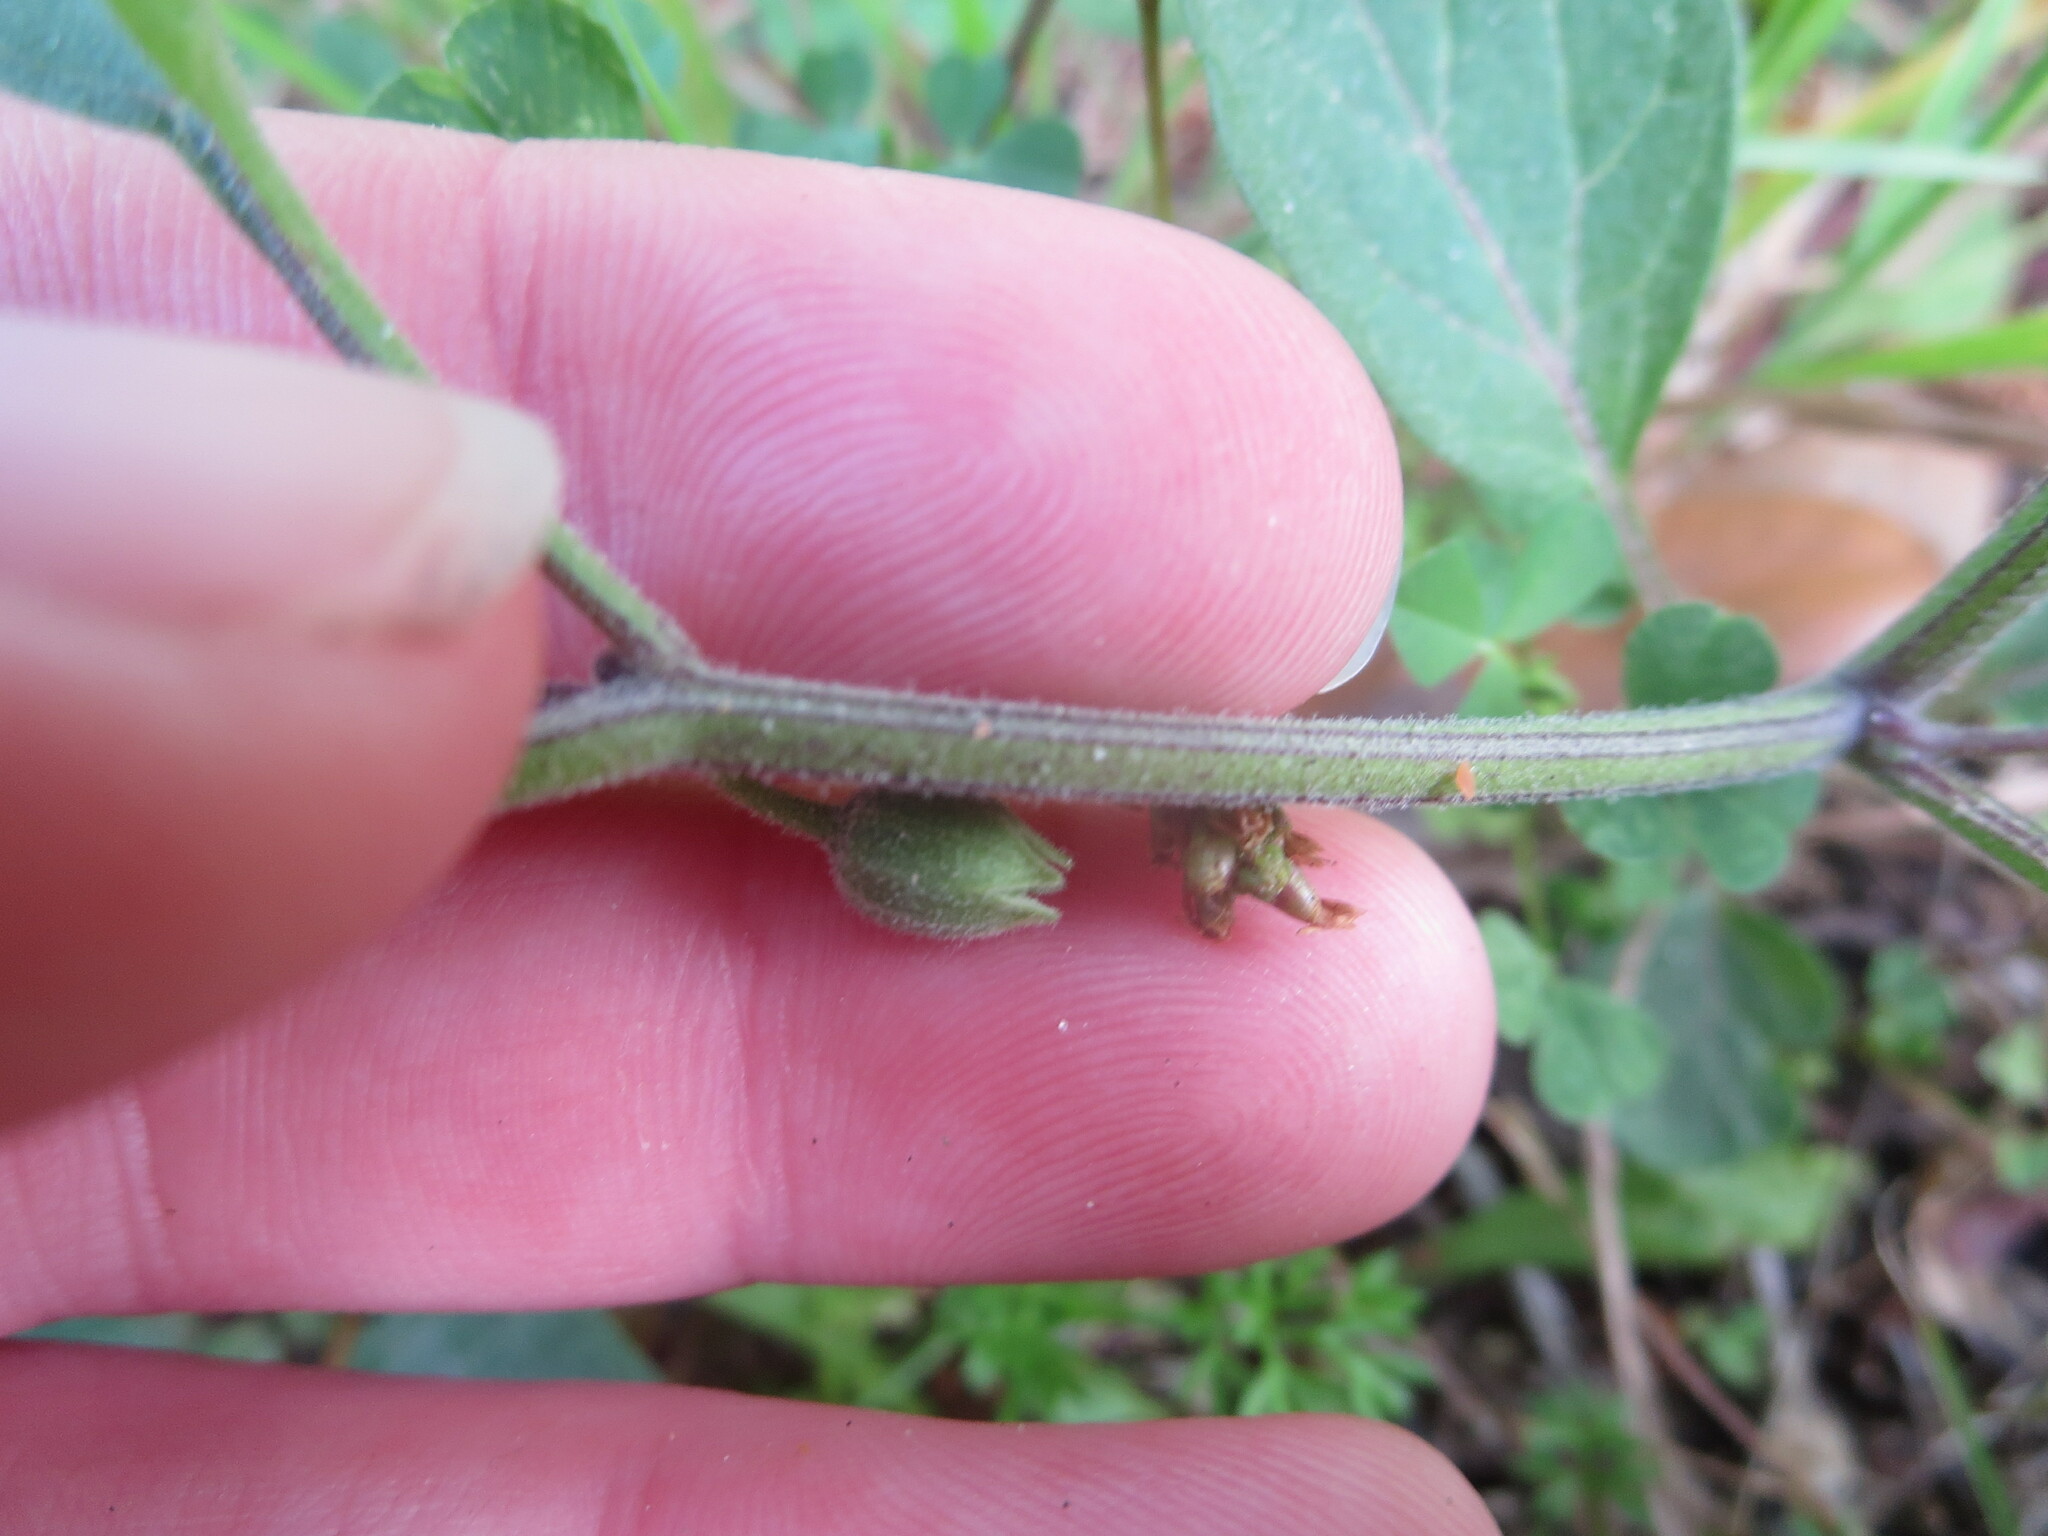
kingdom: Plantae
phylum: Tracheophyta
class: Magnoliopsida
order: Solanales
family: Solanaceae
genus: Physalis
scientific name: Physalis walteri
